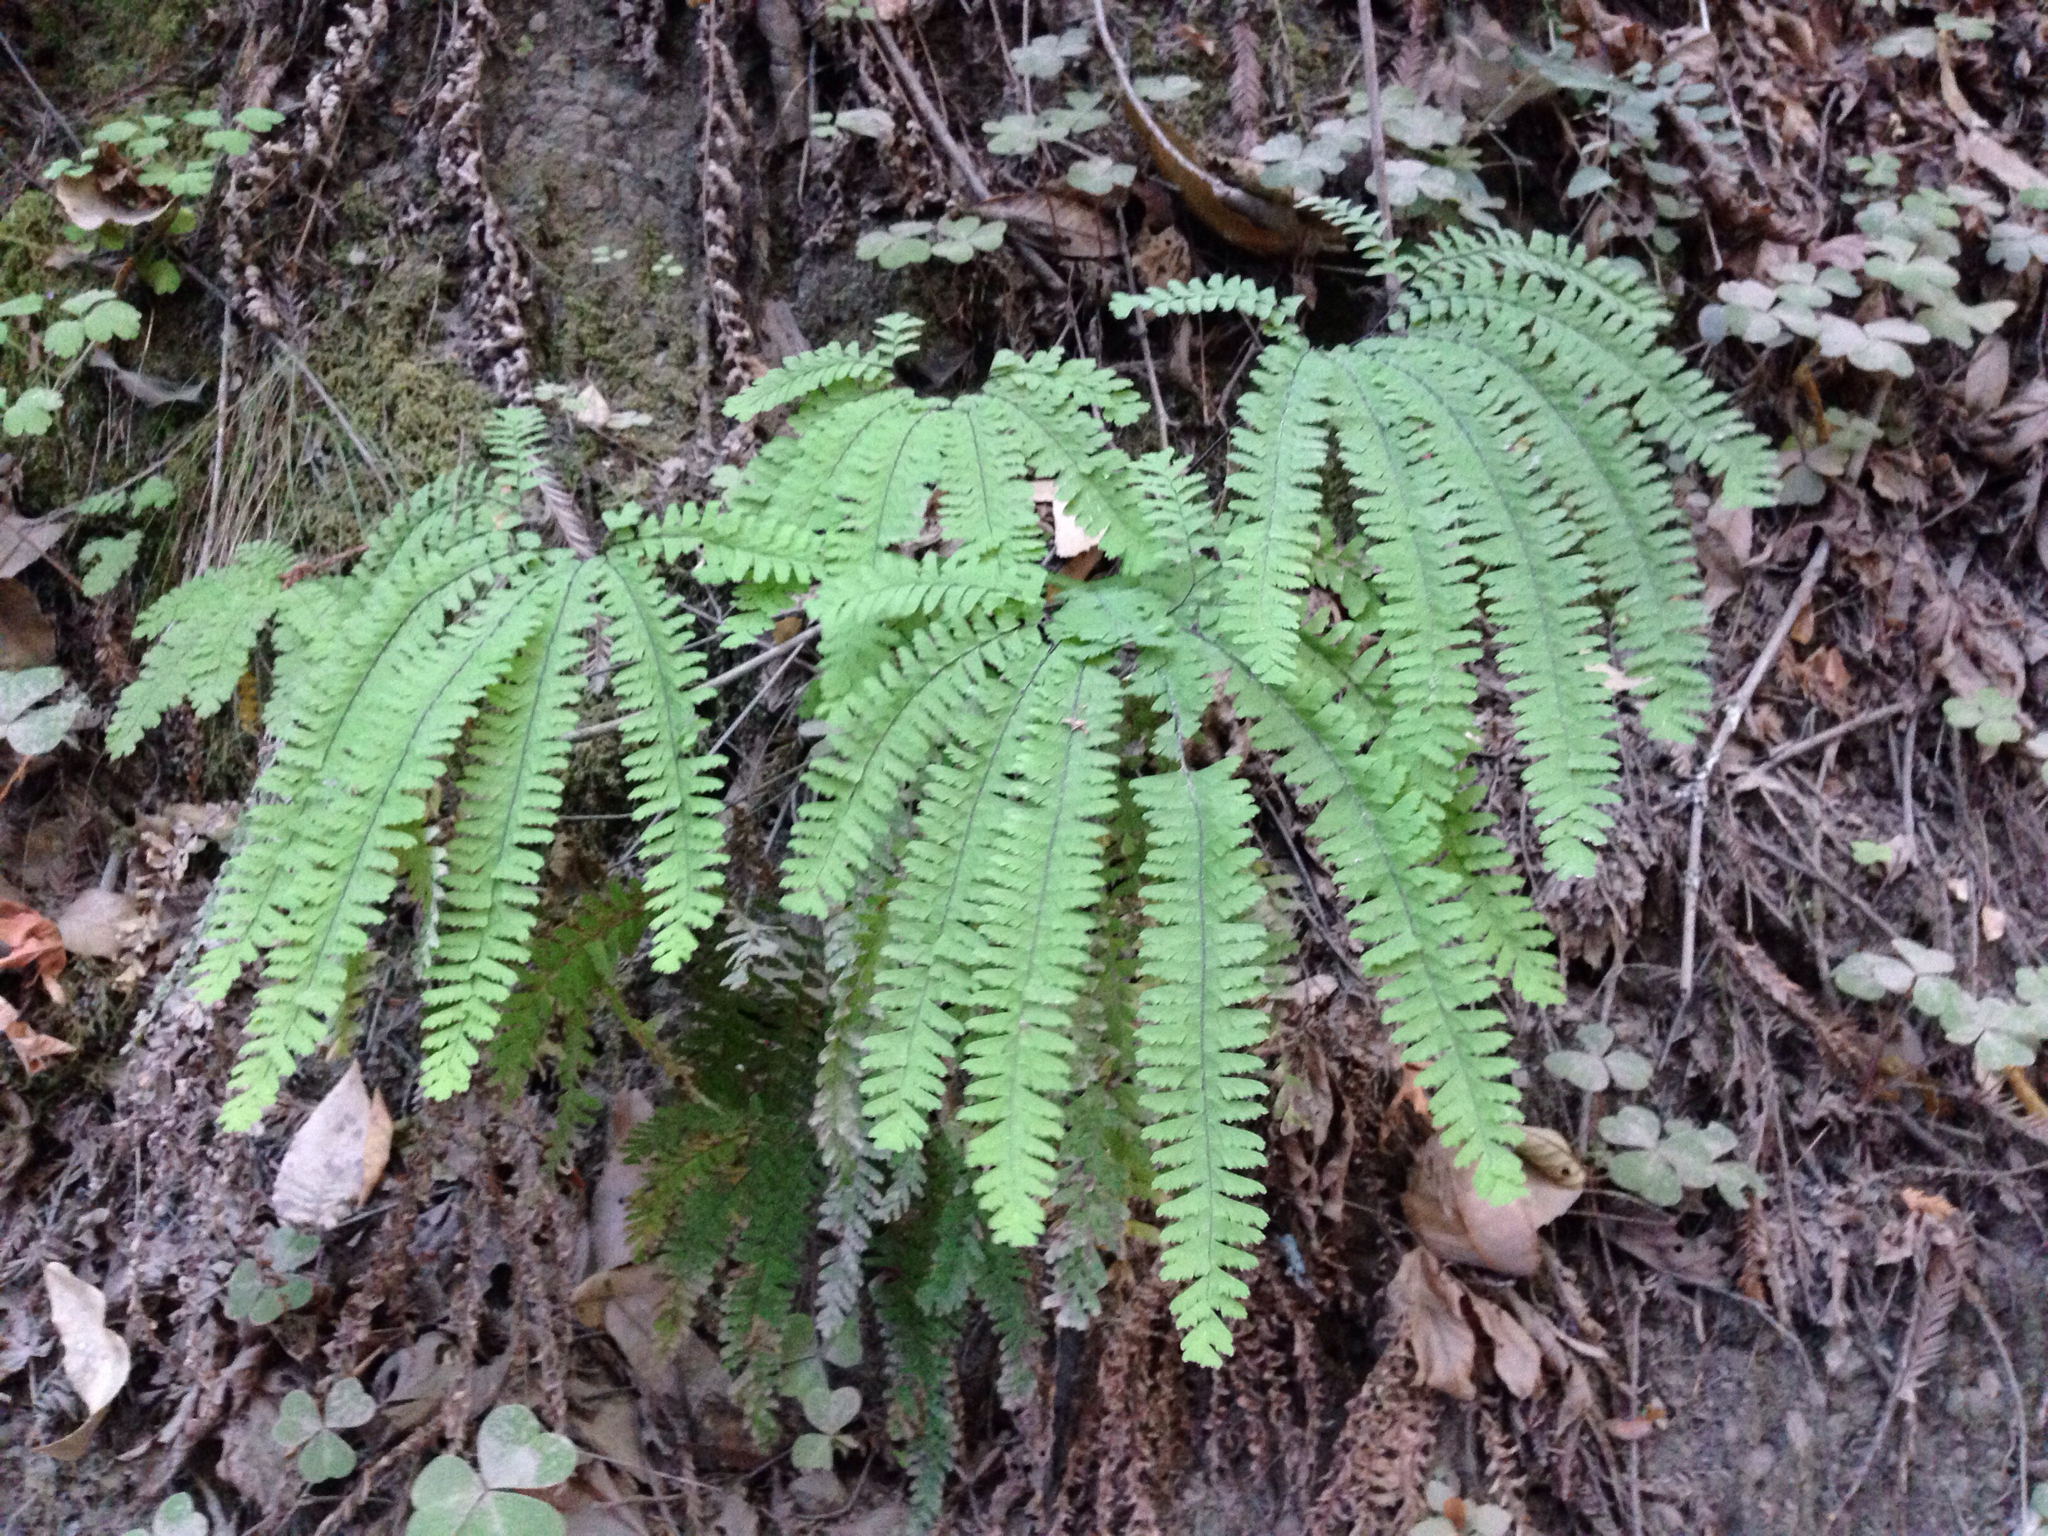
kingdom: Plantae
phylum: Tracheophyta
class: Polypodiopsida
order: Polypodiales
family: Pteridaceae
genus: Adiantum
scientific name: Adiantum aleuticum
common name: Aleutian maidenhair fern
